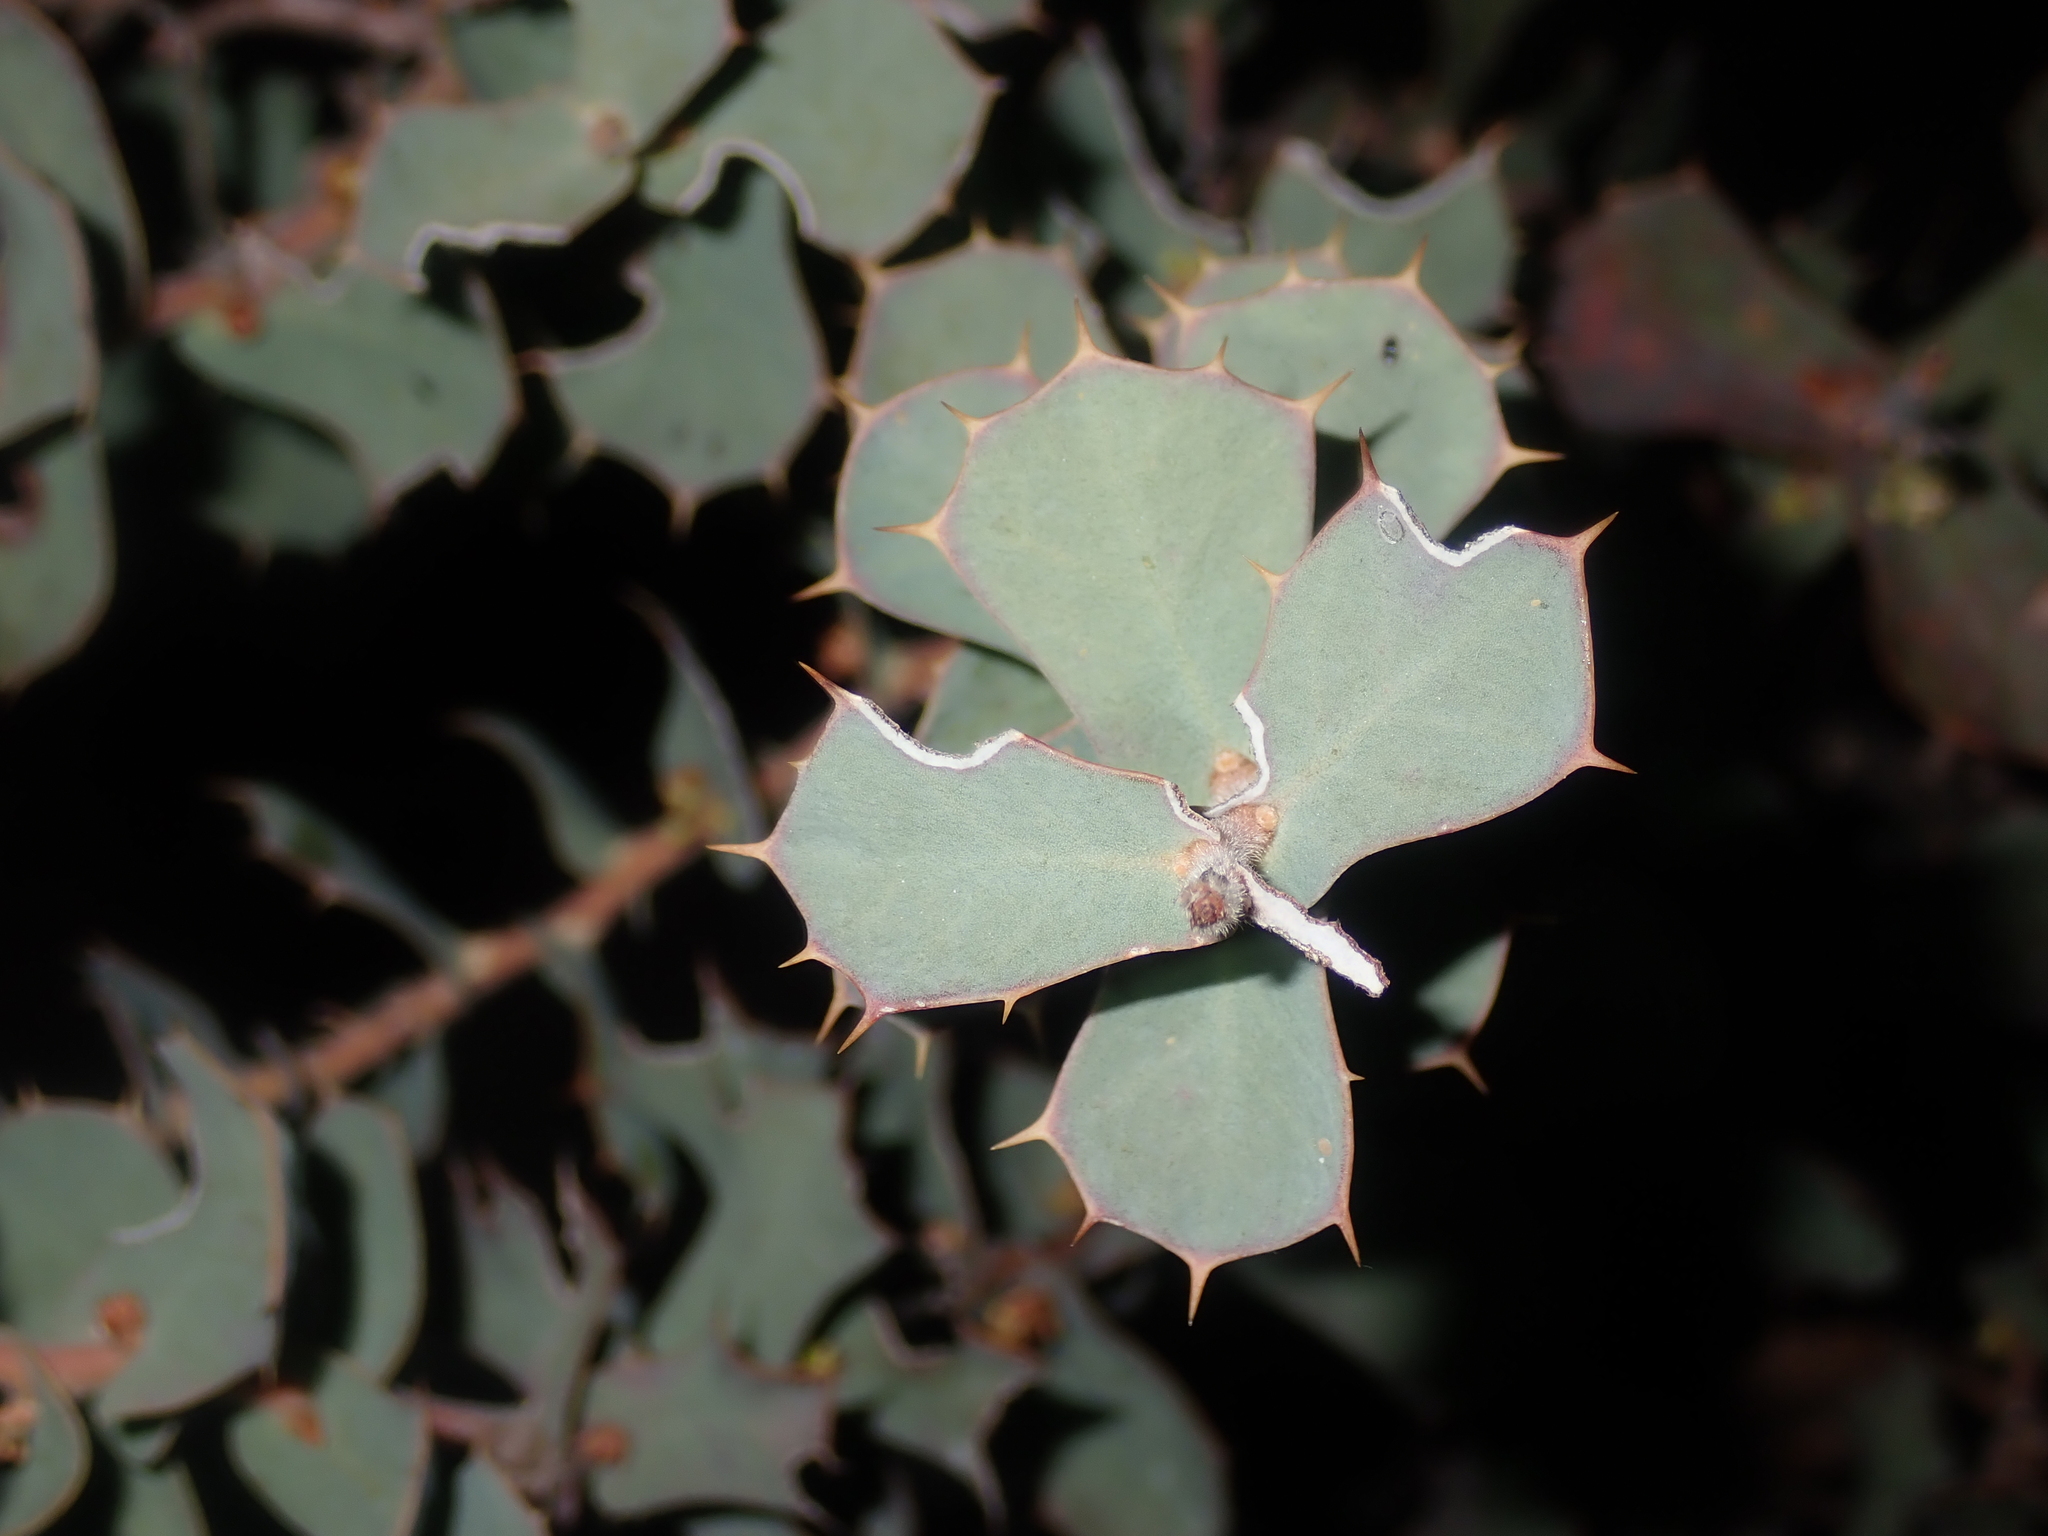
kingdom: Plantae
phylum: Tracheophyta
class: Magnoliopsida
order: Proteales
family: Proteaceae
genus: Hakea
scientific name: Hakea prostrata
